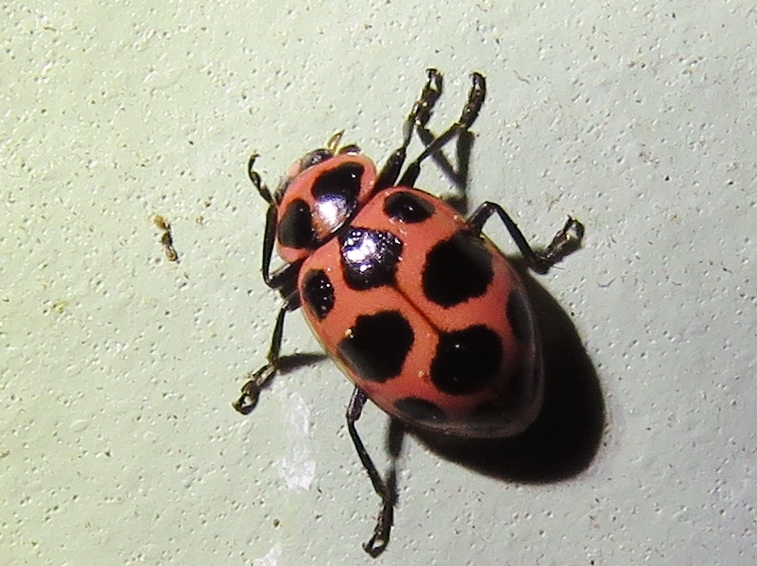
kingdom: Animalia
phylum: Arthropoda
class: Insecta
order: Coleoptera
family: Coccinellidae
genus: Coleomegilla
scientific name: Coleomegilla maculata
